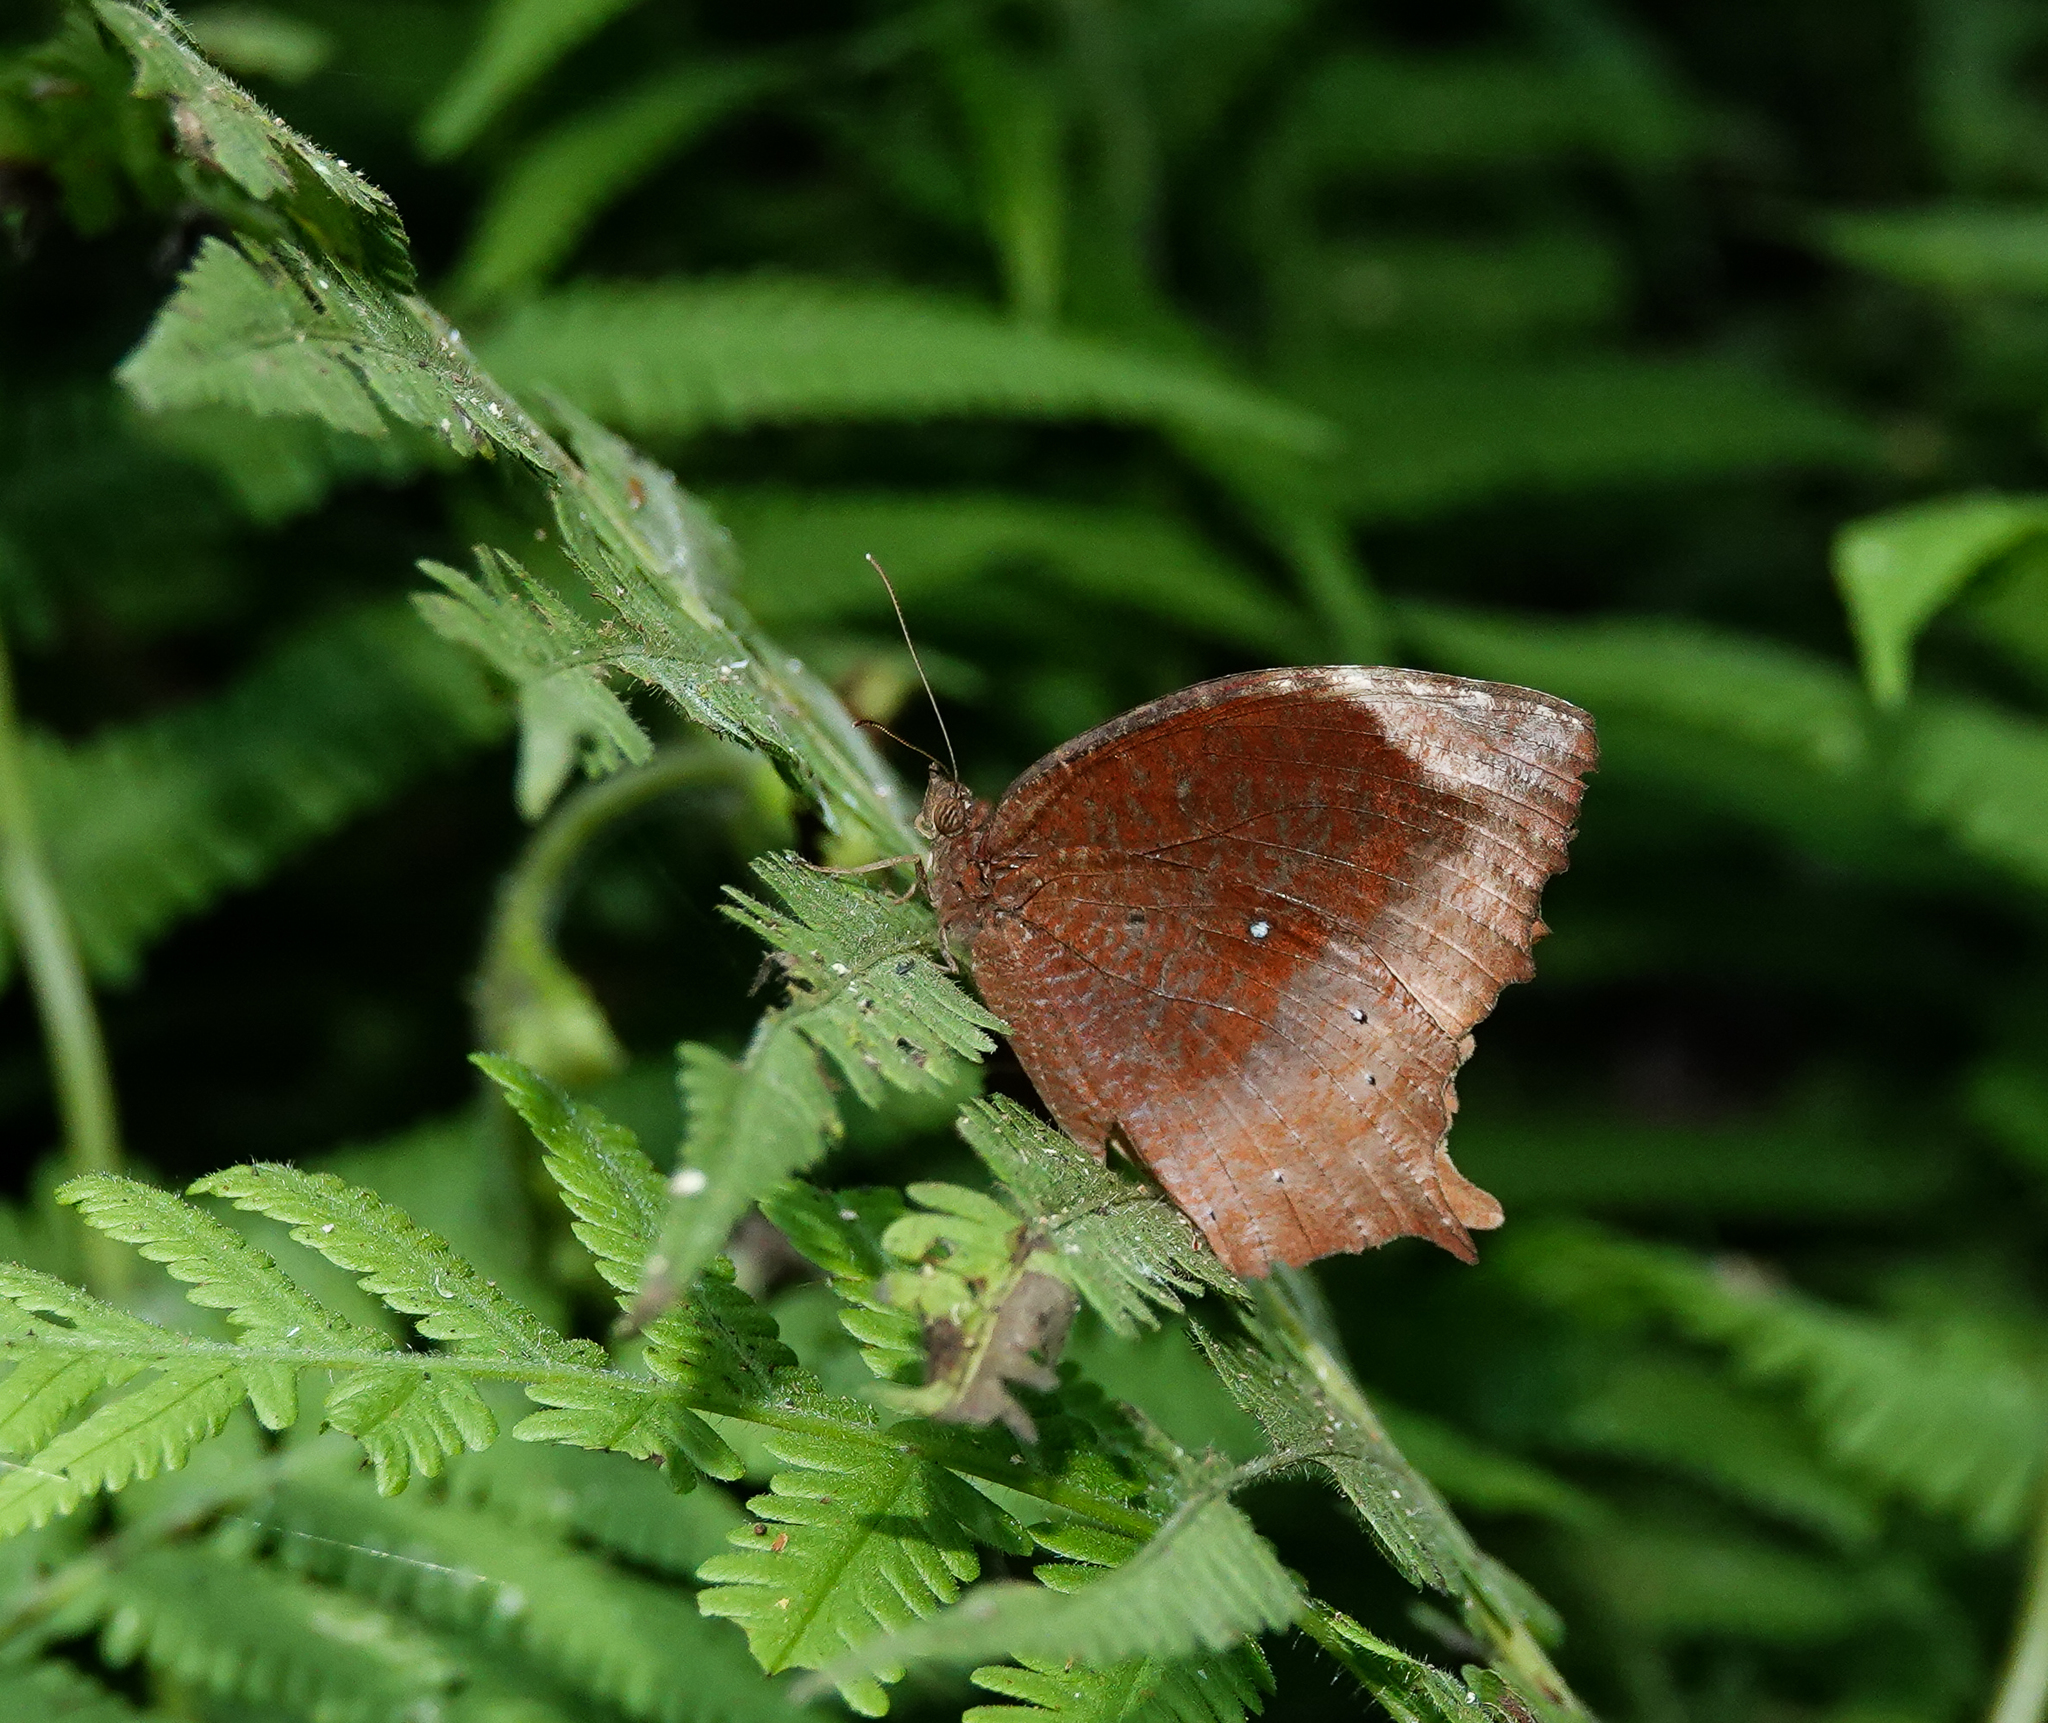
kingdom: Animalia
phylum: Arthropoda
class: Insecta
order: Lepidoptera
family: Nymphalidae
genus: Elymnias
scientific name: Elymnias congruens
